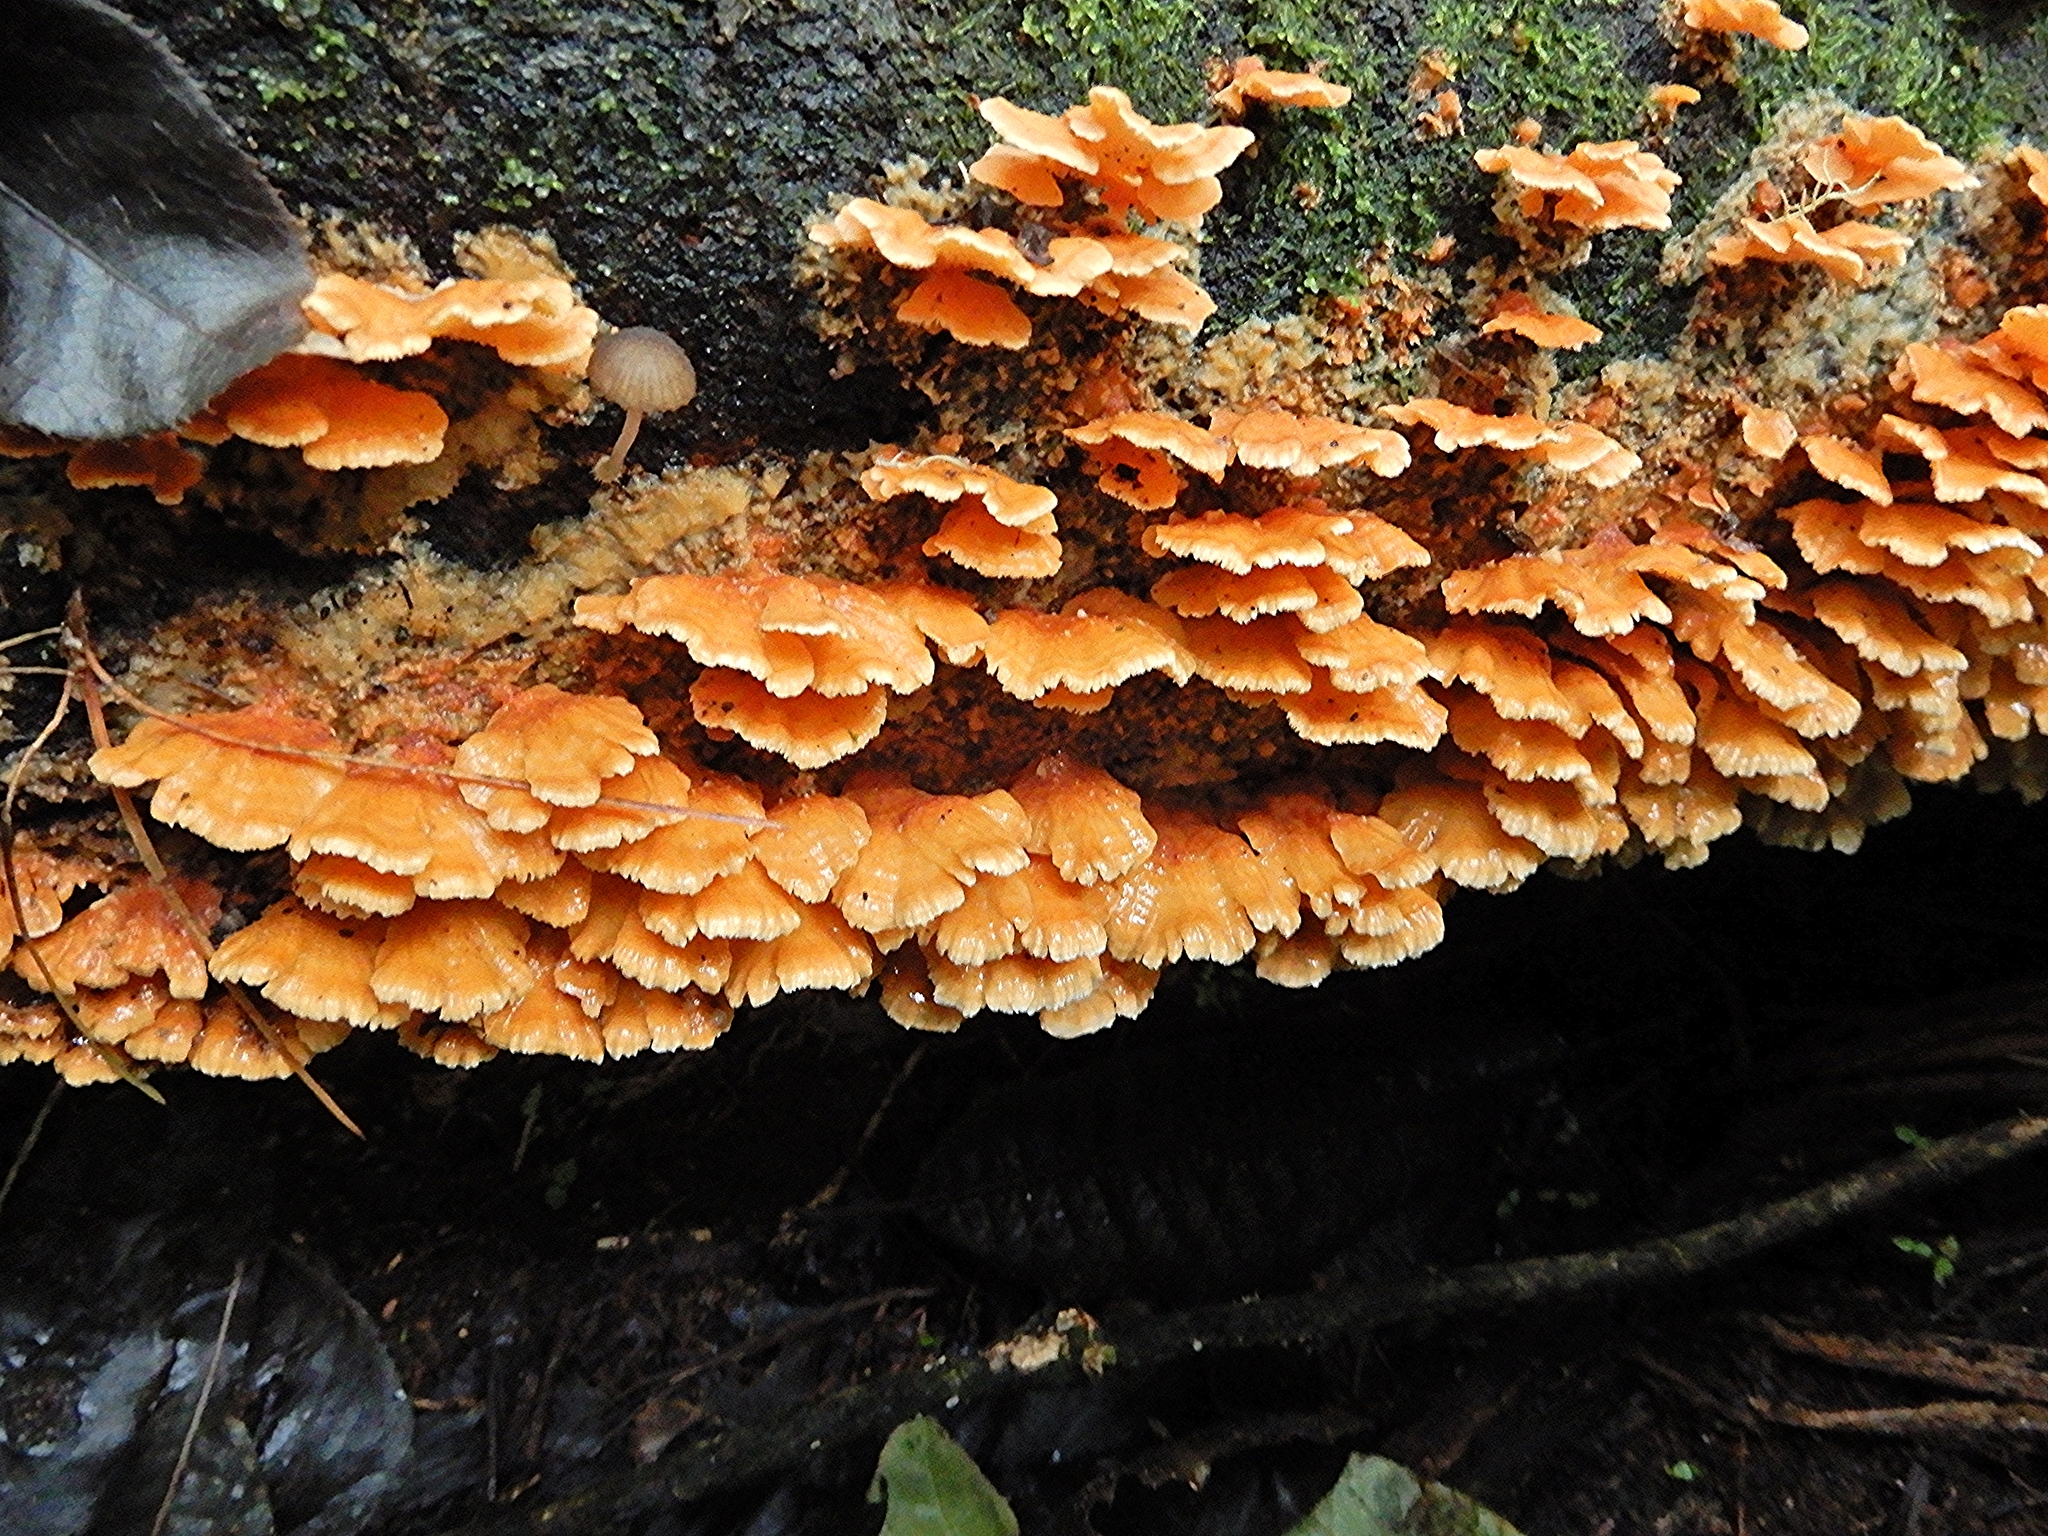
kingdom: Fungi
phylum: Basidiomycota
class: Agaricomycetes
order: Polyporales
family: Cerrenaceae
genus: Cerrena
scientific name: Cerrena zonata
